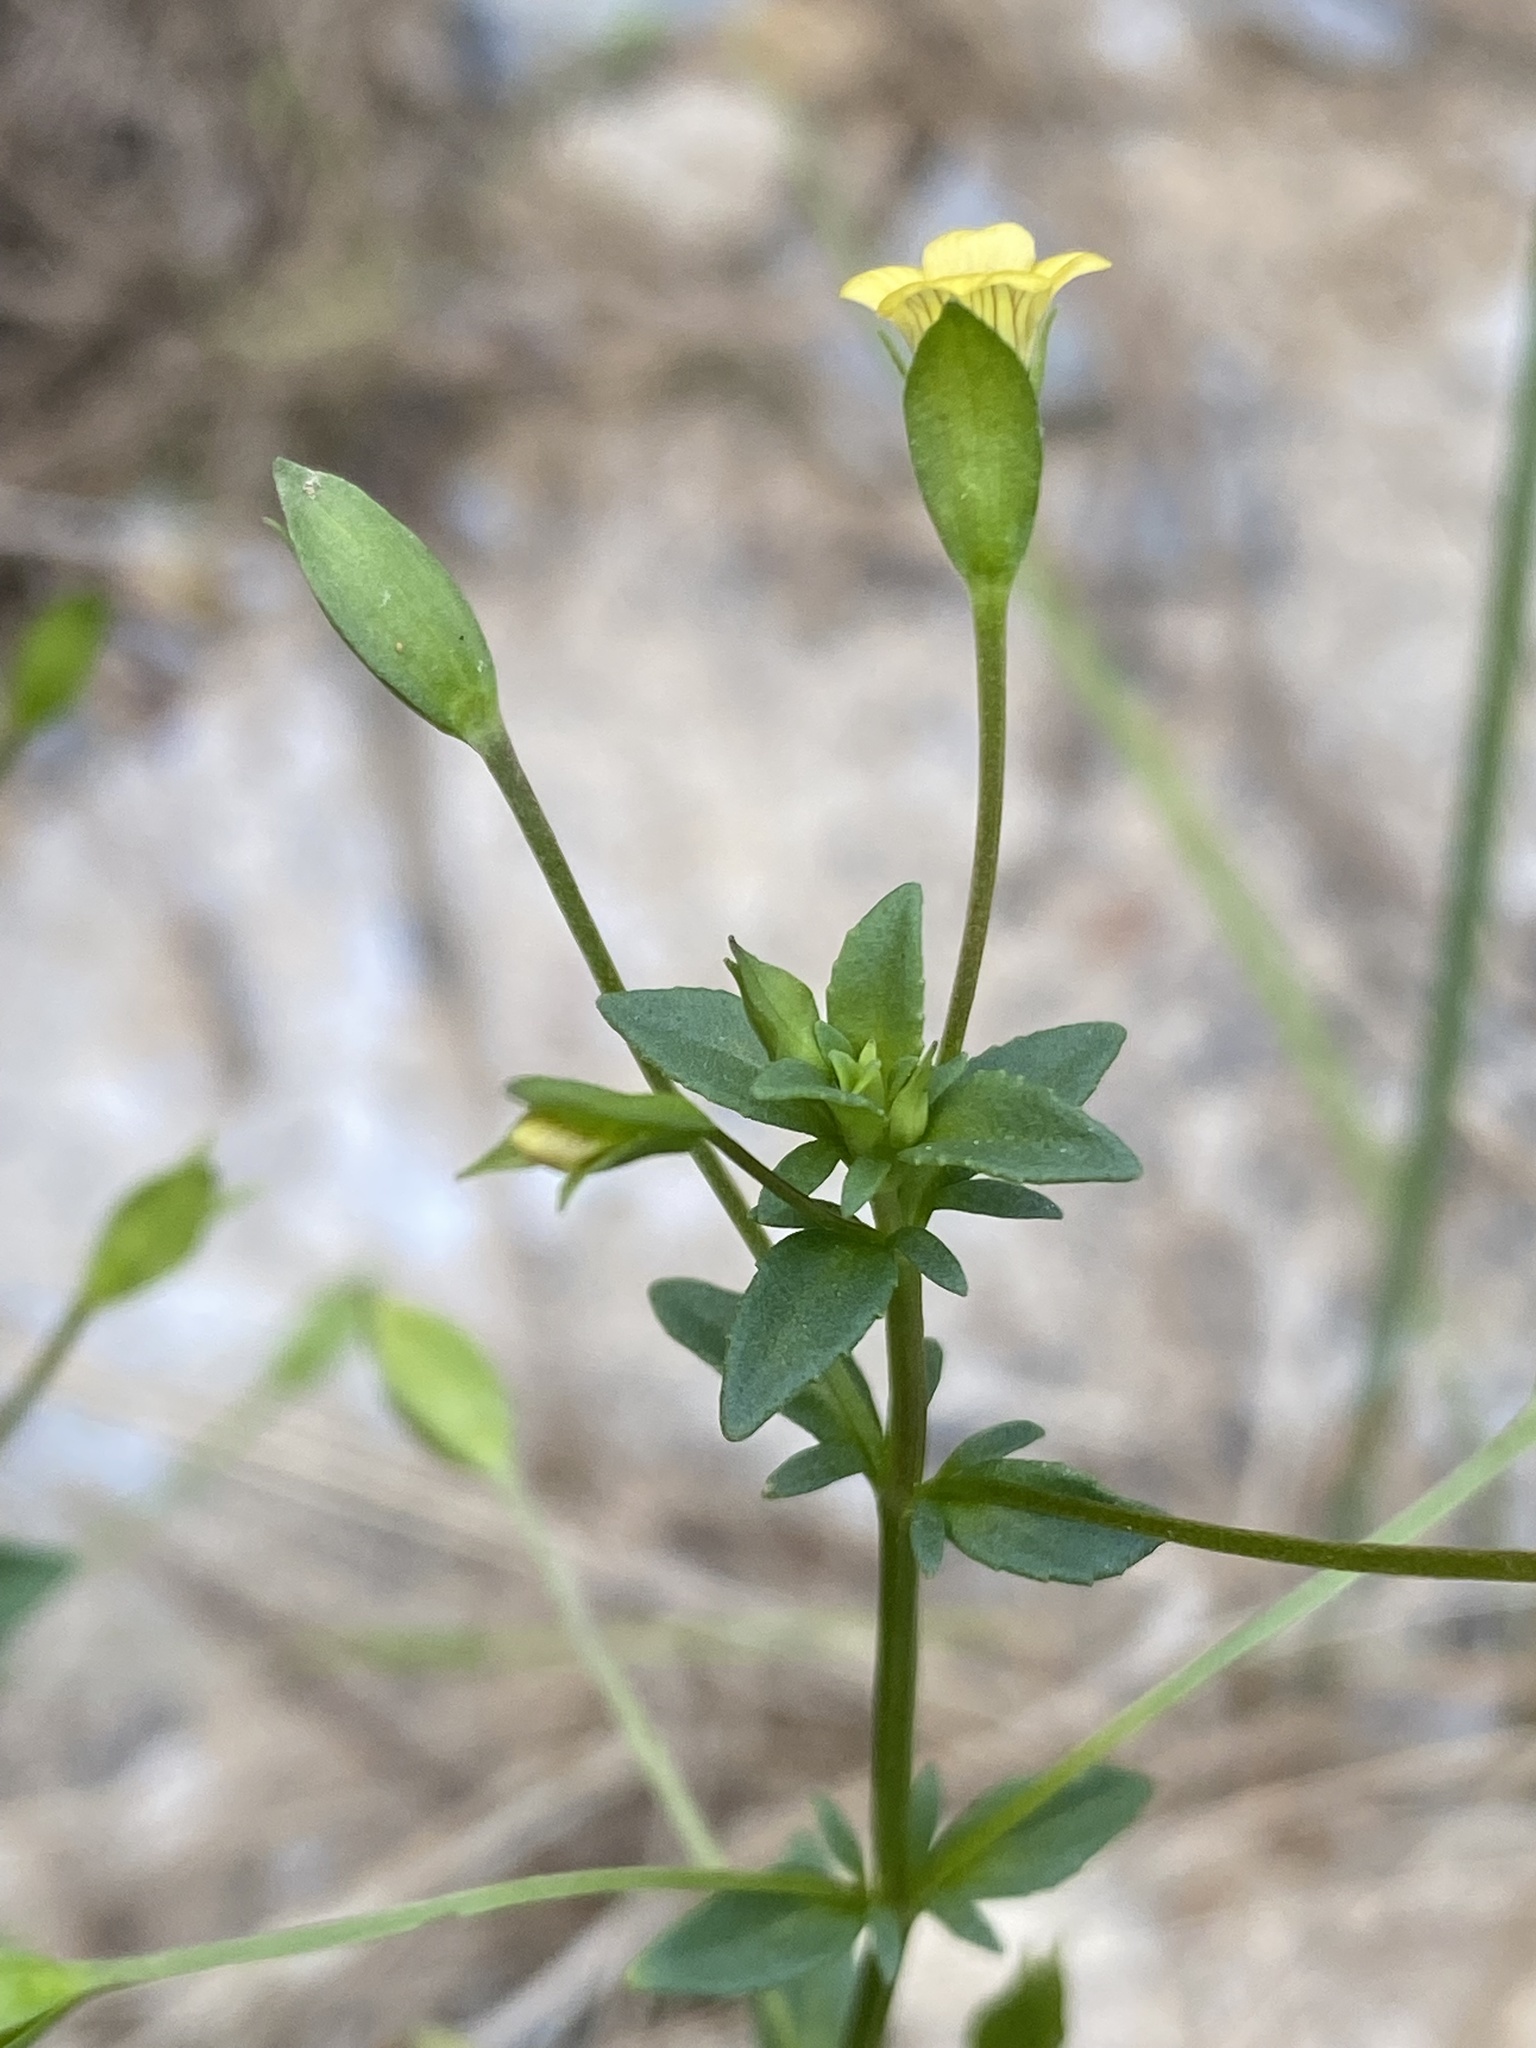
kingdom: Plantae
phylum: Tracheophyta
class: Magnoliopsida
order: Lamiales
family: Plantaginaceae
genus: Mecardonia
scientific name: Mecardonia procumbens
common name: Baby jump-up
